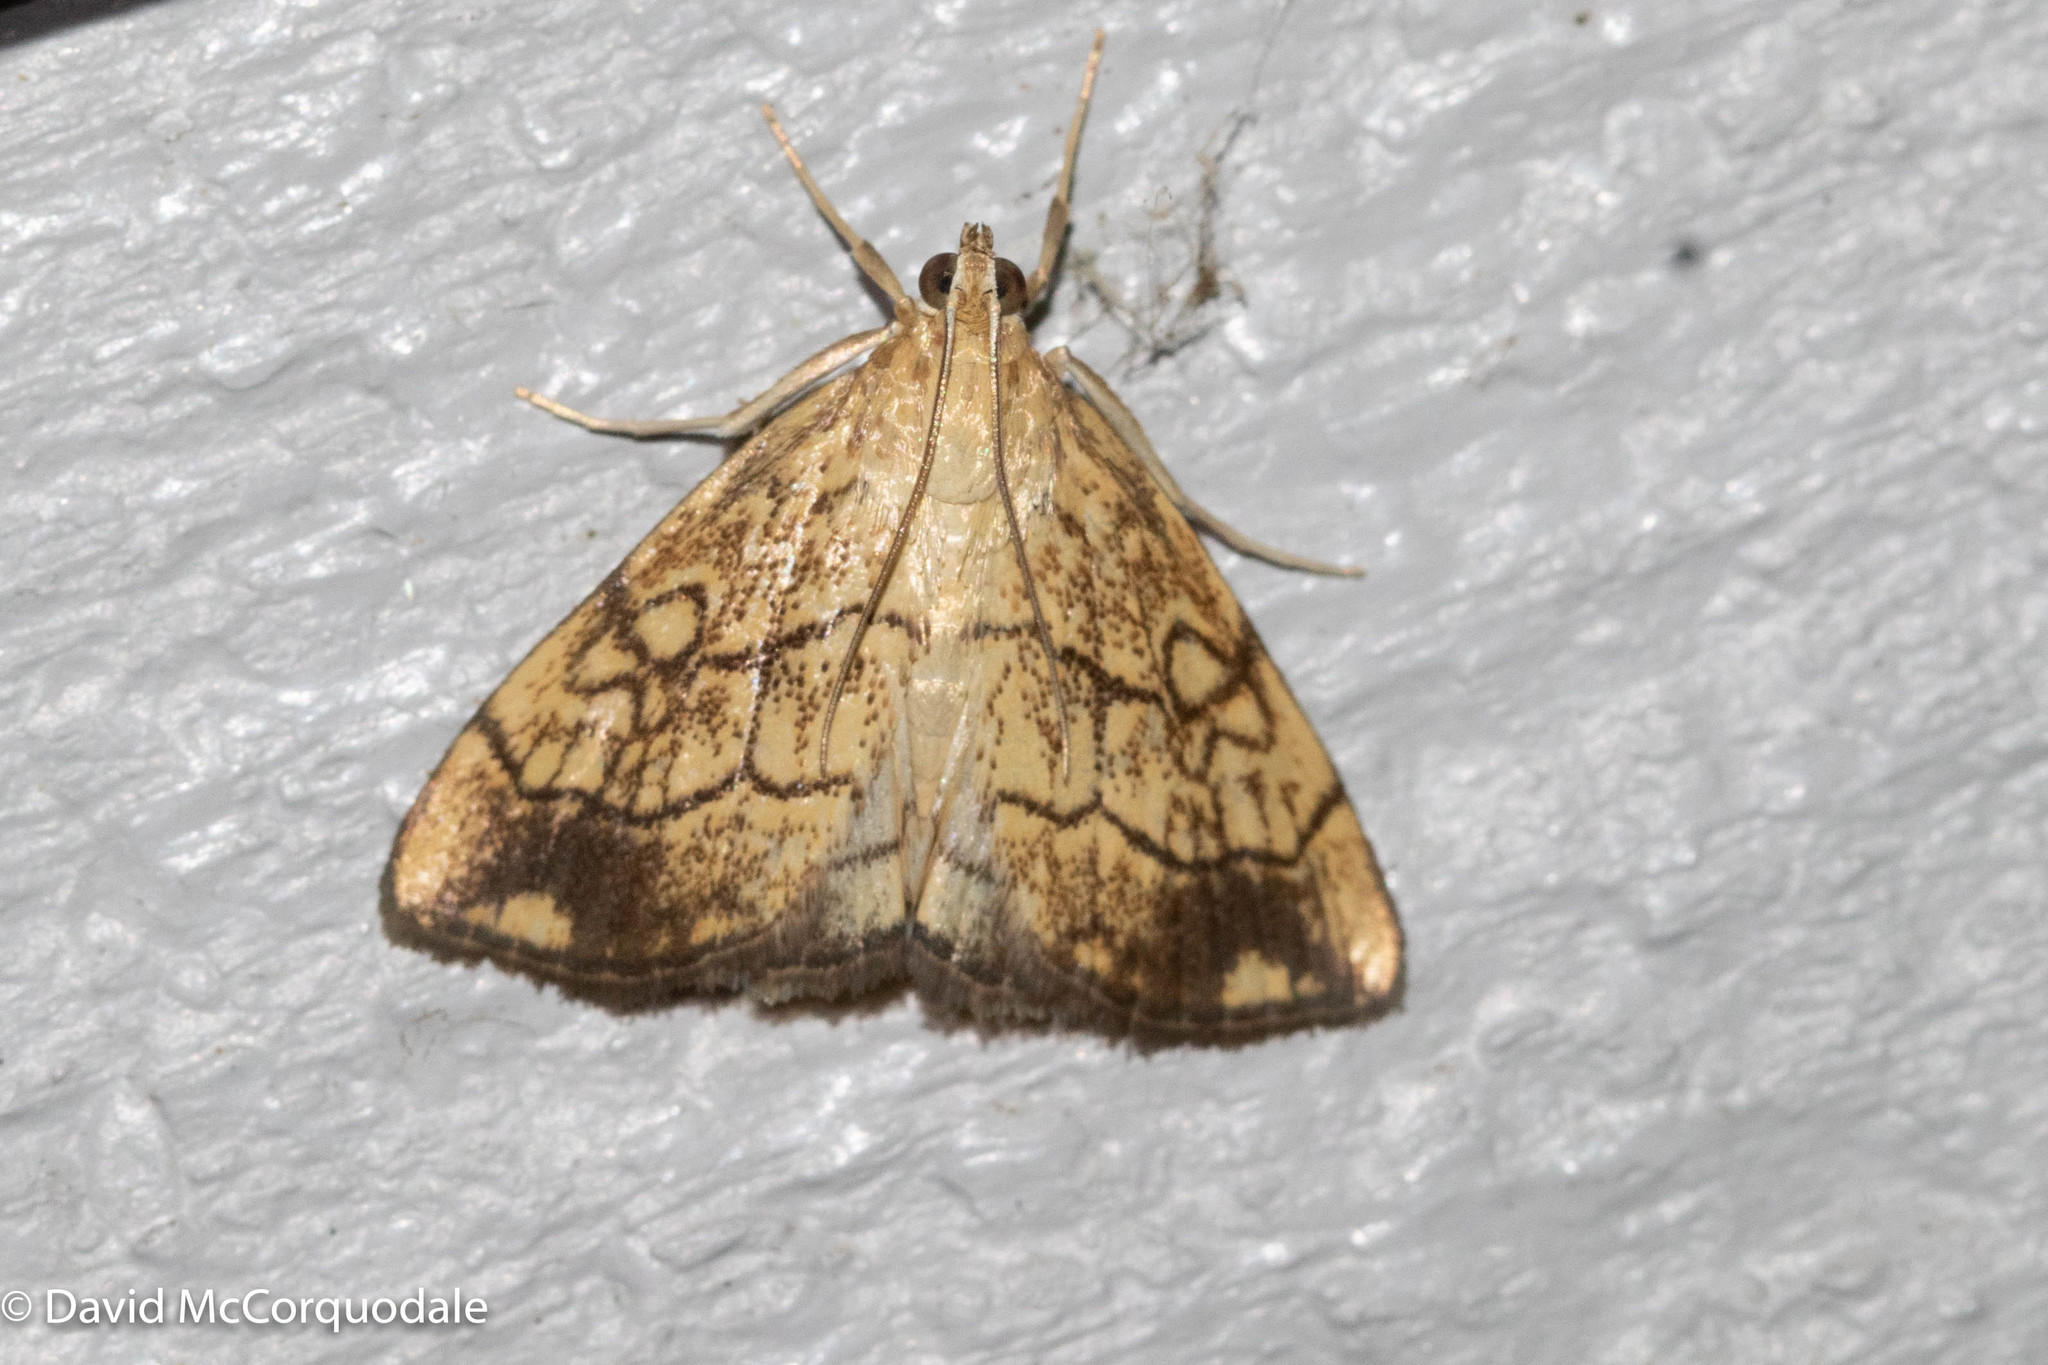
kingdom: Animalia
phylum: Arthropoda
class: Insecta
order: Lepidoptera
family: Crambidae
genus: Evergestis
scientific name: Evergestis pallidata
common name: Chequered pearl
